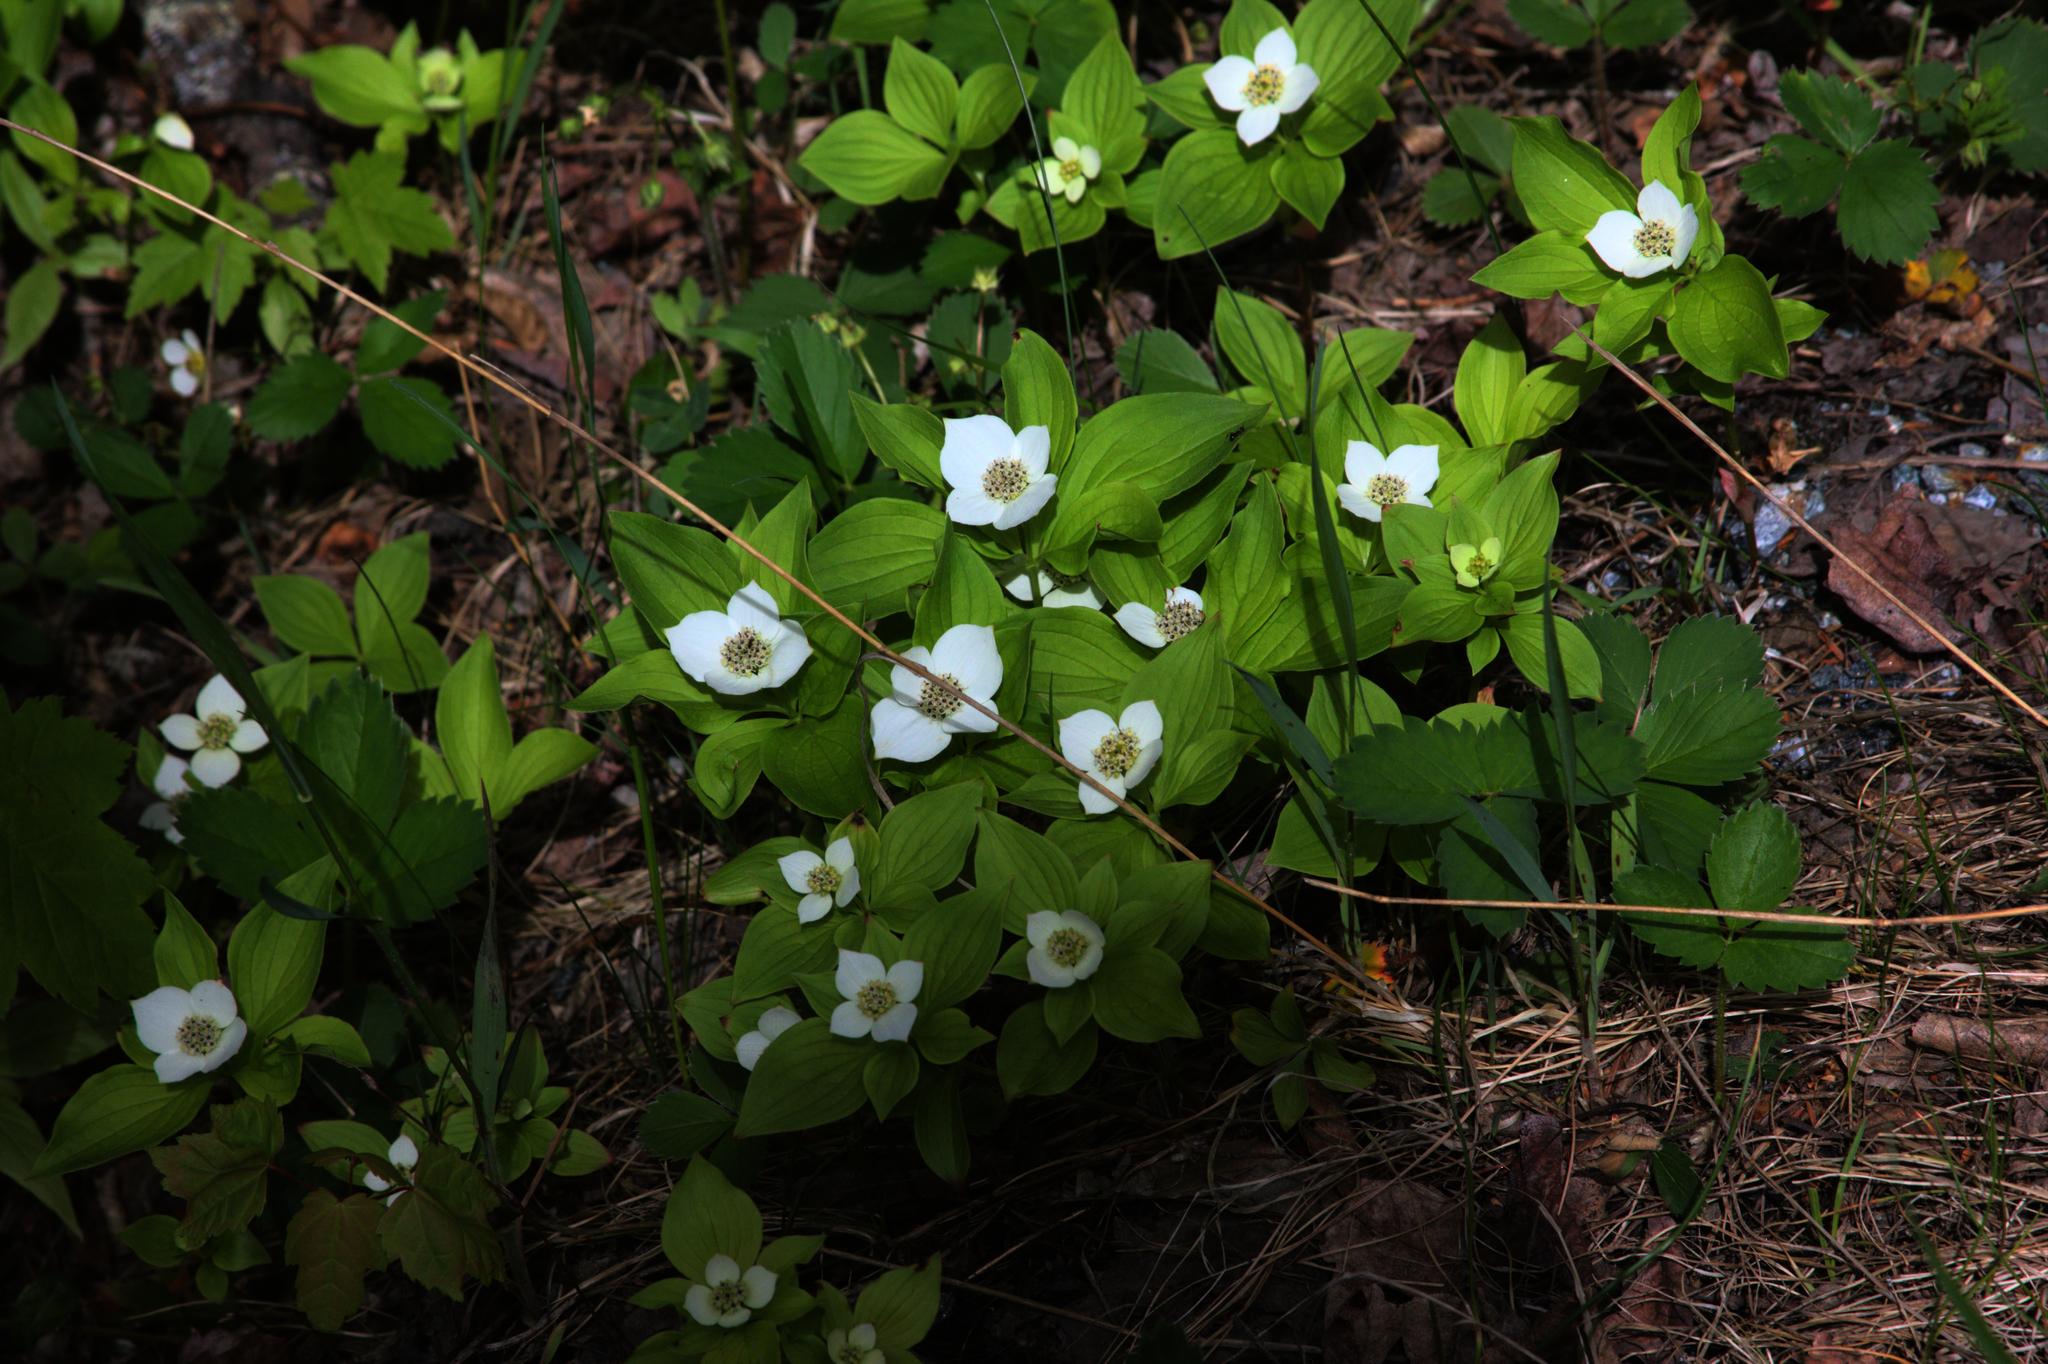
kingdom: Plantae
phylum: Tracheophyta
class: Magnoliopsida
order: Cornales
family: Cornaceae
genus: Cornus
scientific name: Cornus canadensis
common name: Creeping dogwood
